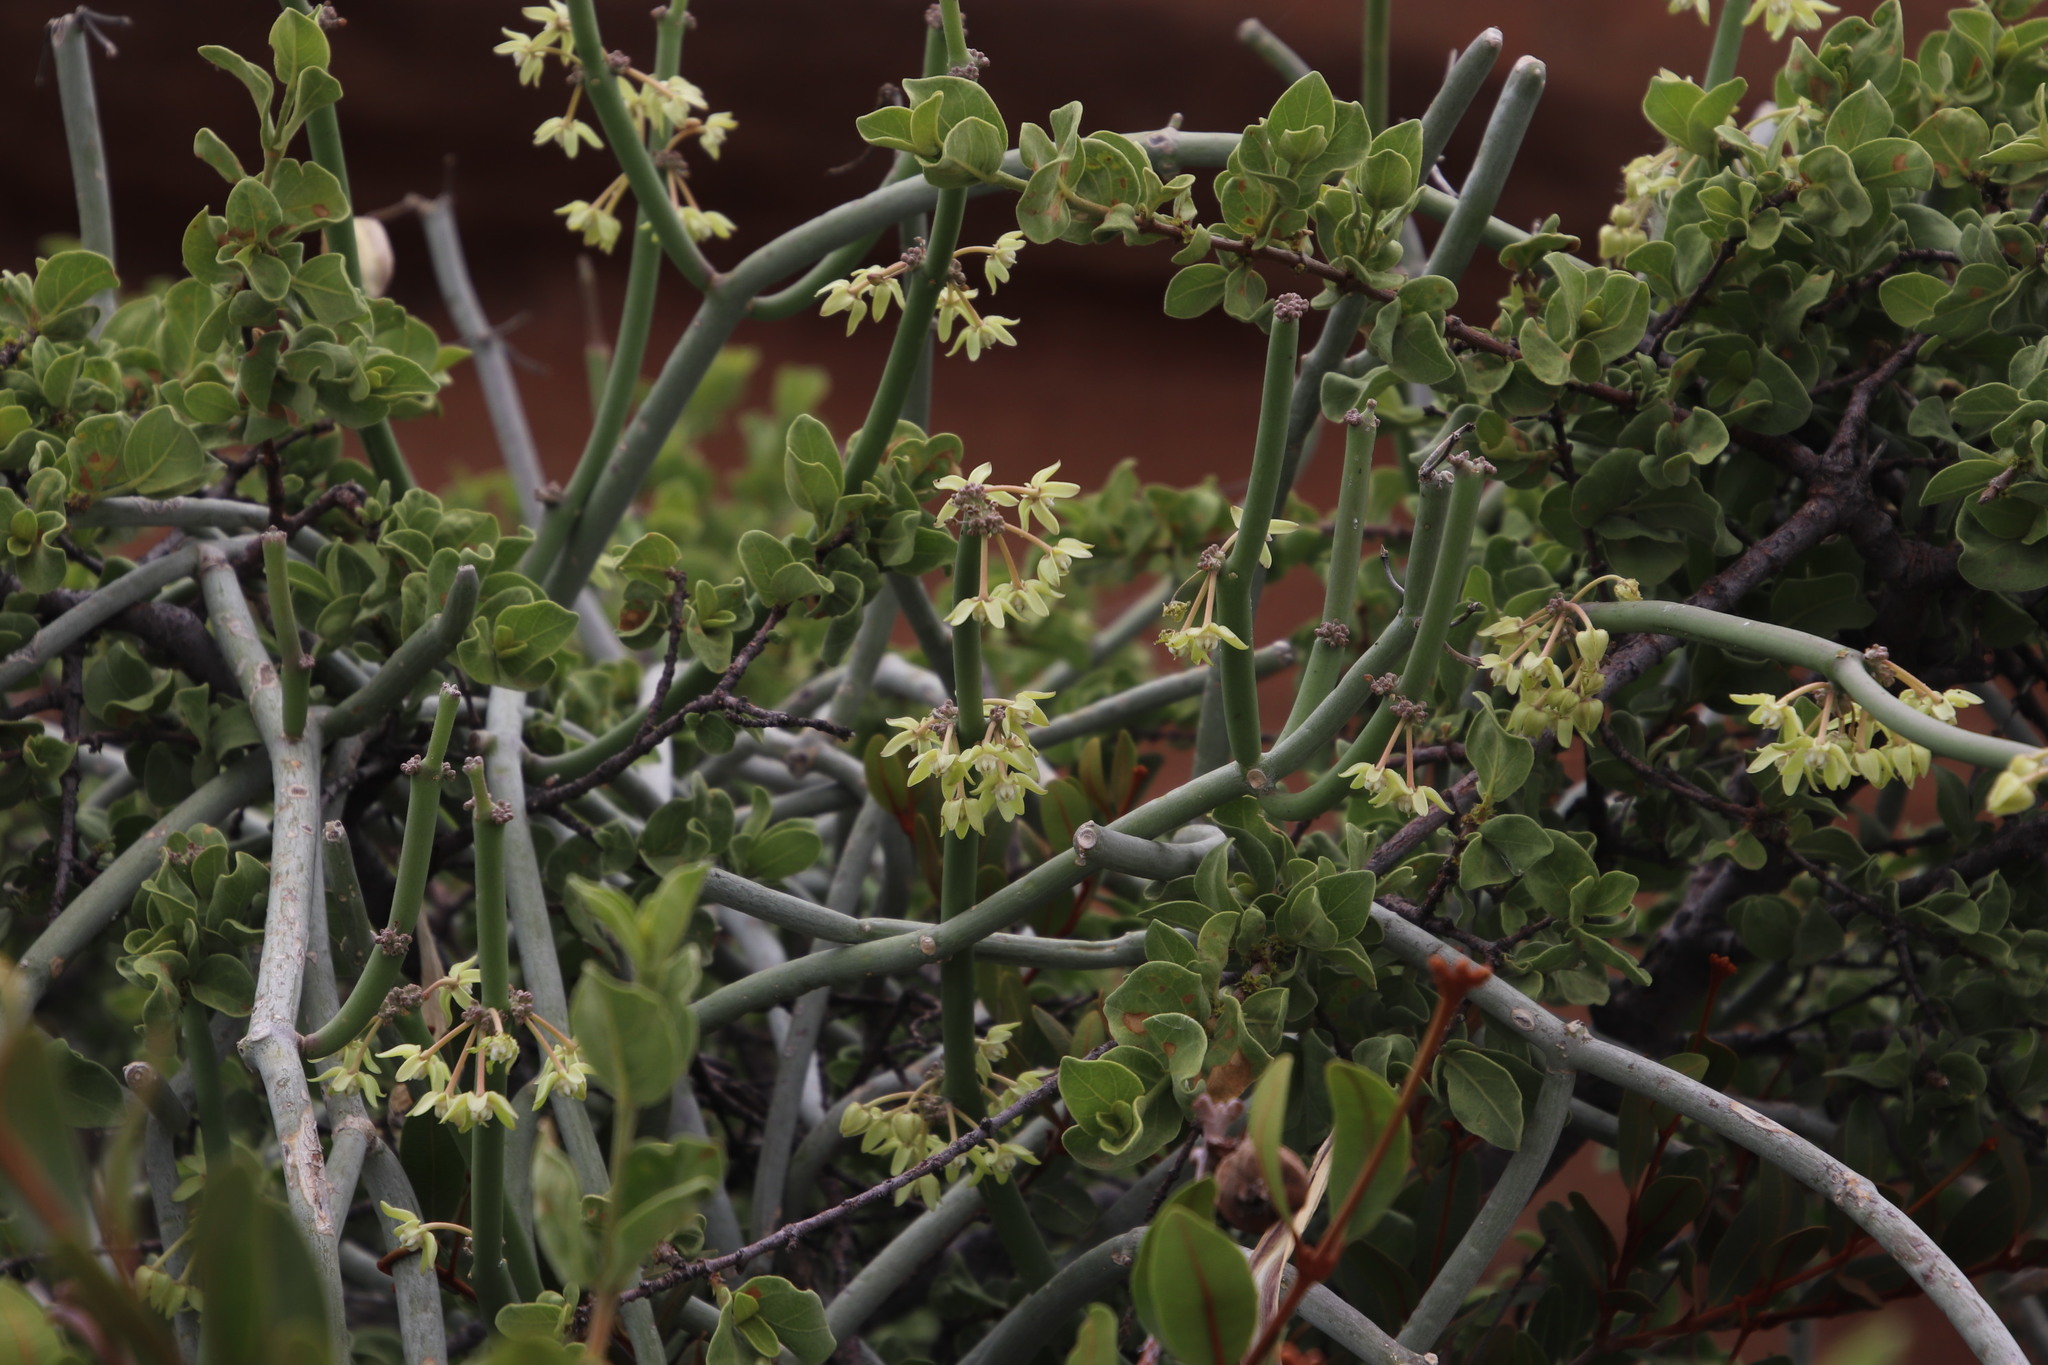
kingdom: Plantae
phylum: Tracheophyta
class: Magnoliopsida
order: Gentianales
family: Apocynaceae
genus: Cynanchum
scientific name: Cynanchum viminale
